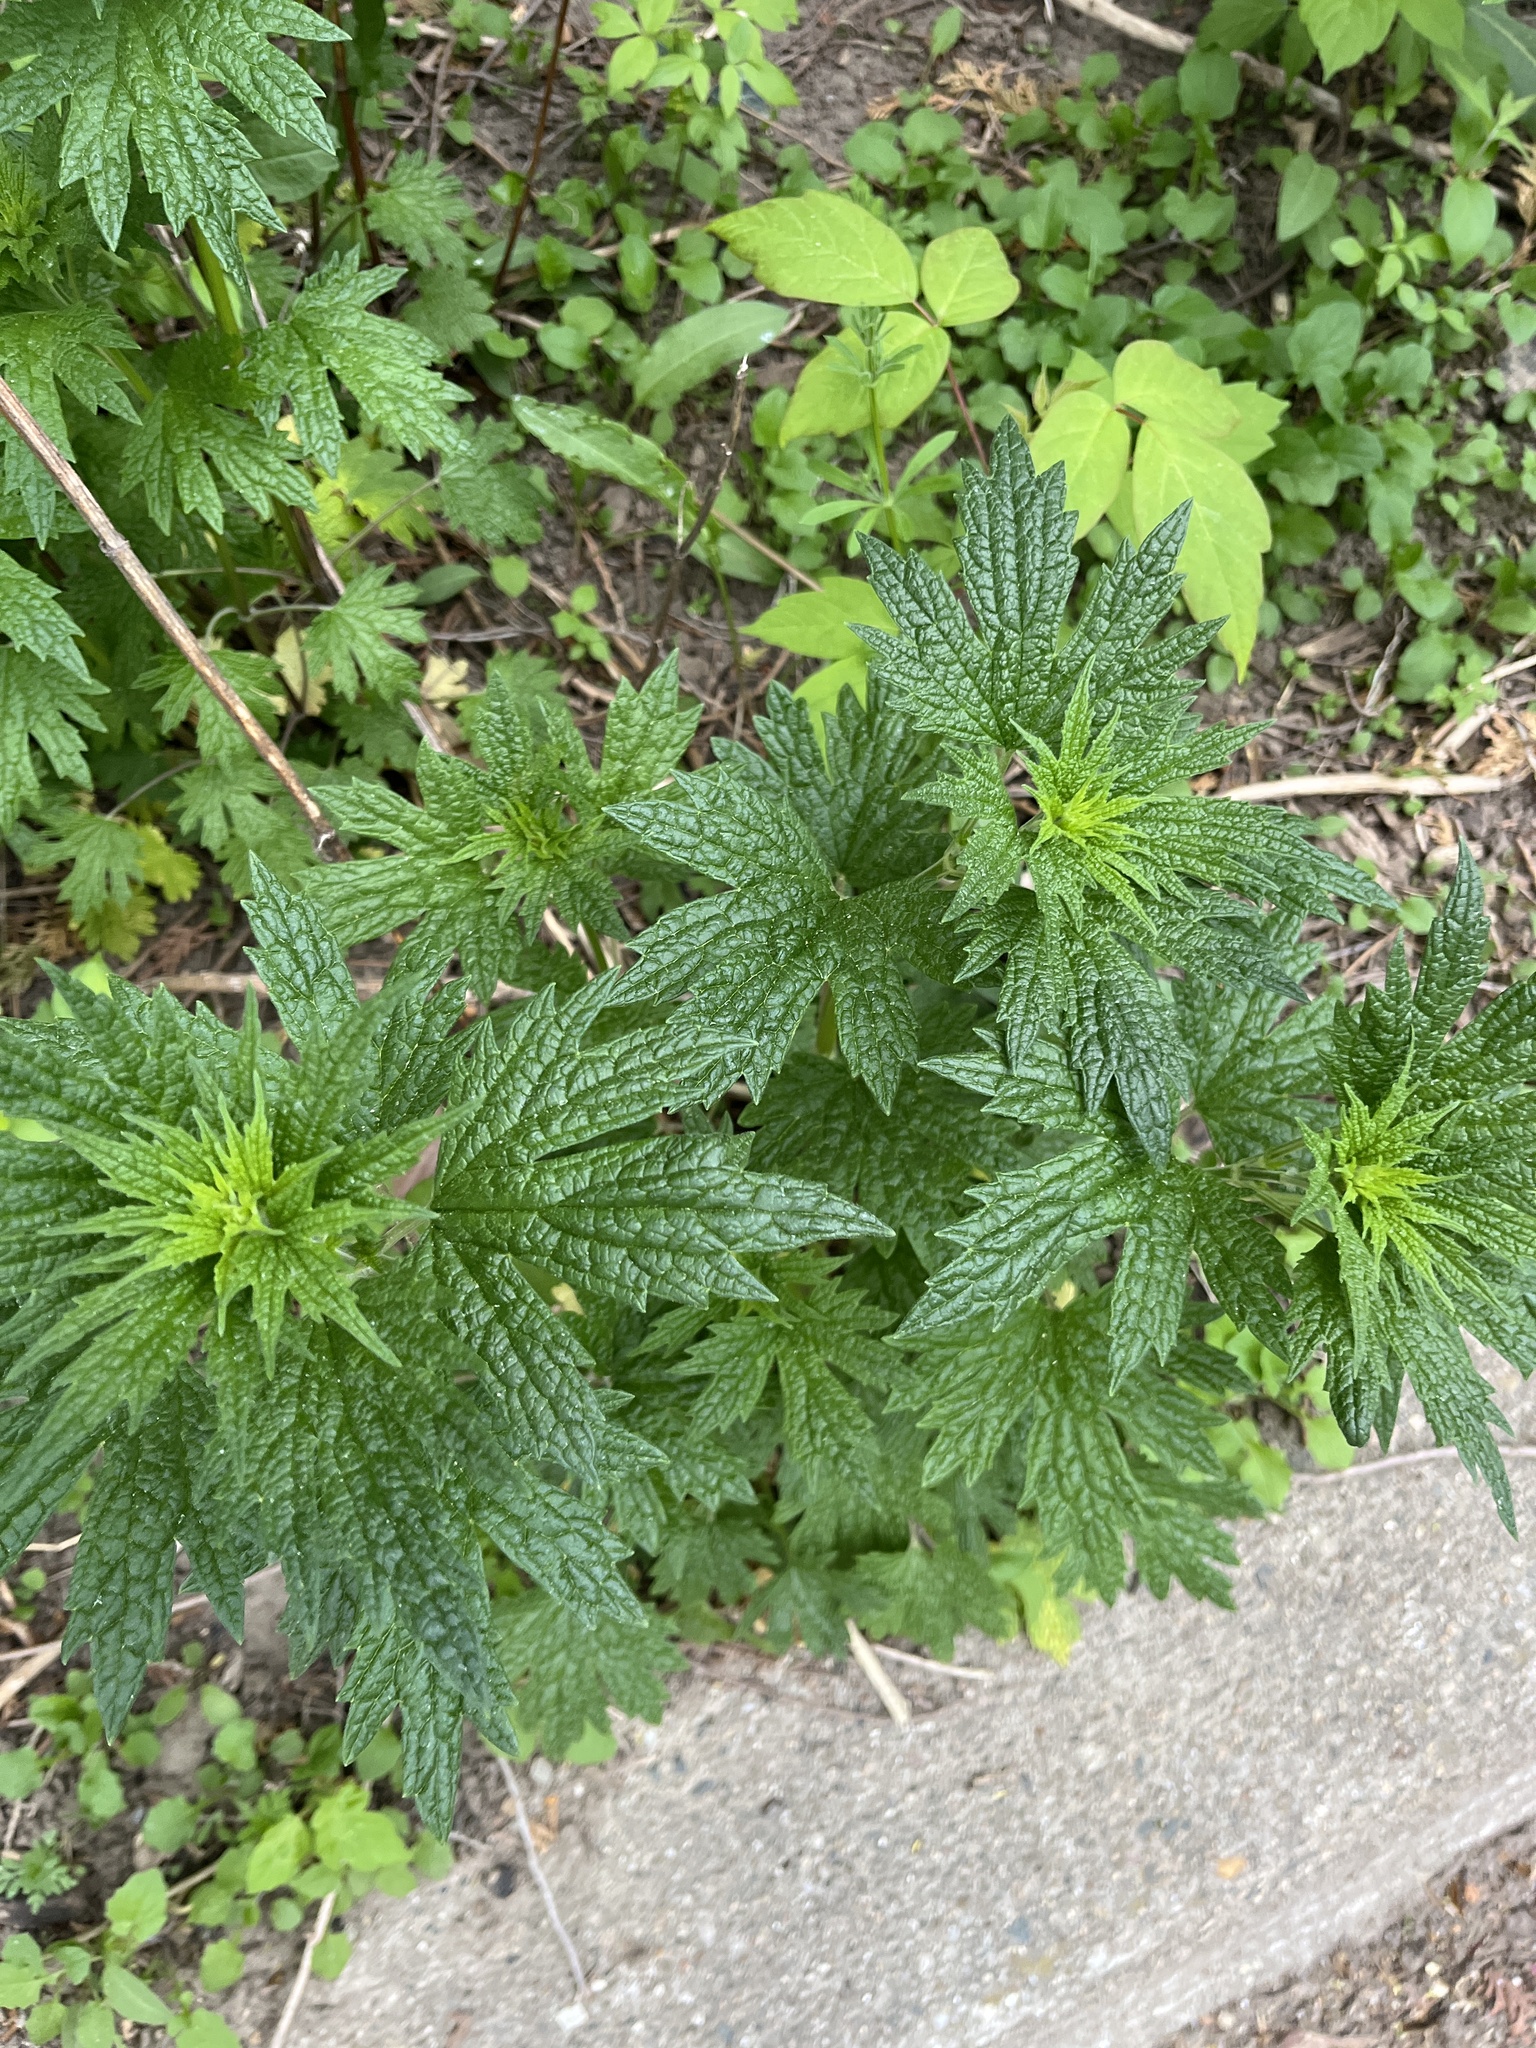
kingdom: Plantae
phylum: Tracheophyta
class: Magnoliopsida
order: Lamiales
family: Lamiaceae
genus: Leonurus
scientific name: Leonurus cardiaca
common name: Motherwort
